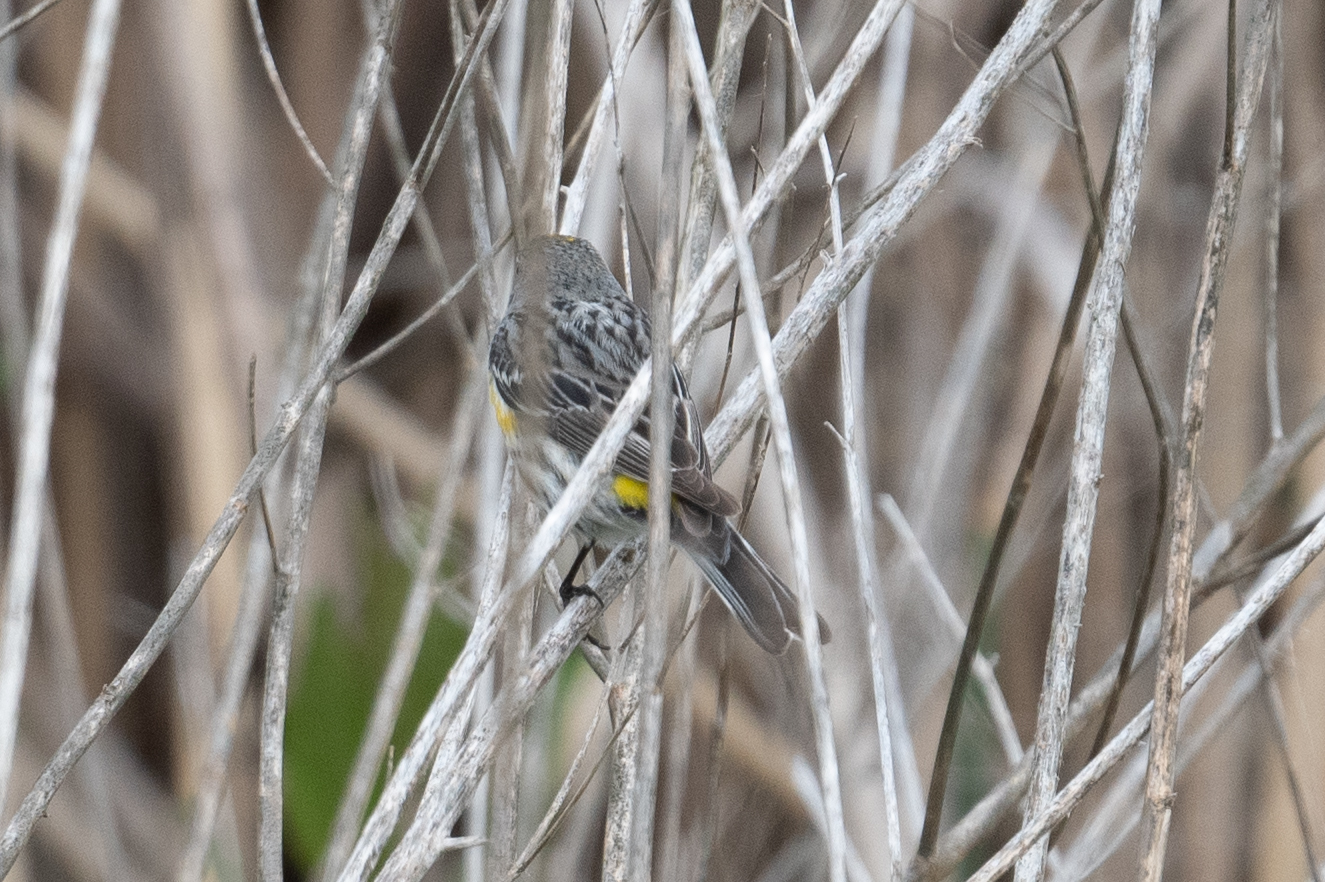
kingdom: Animalia
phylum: Chordata
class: Aves
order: Passeriformes
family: Parulidae
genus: Setophaga
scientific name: Setophaga coronata
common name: Myrtle warbler
